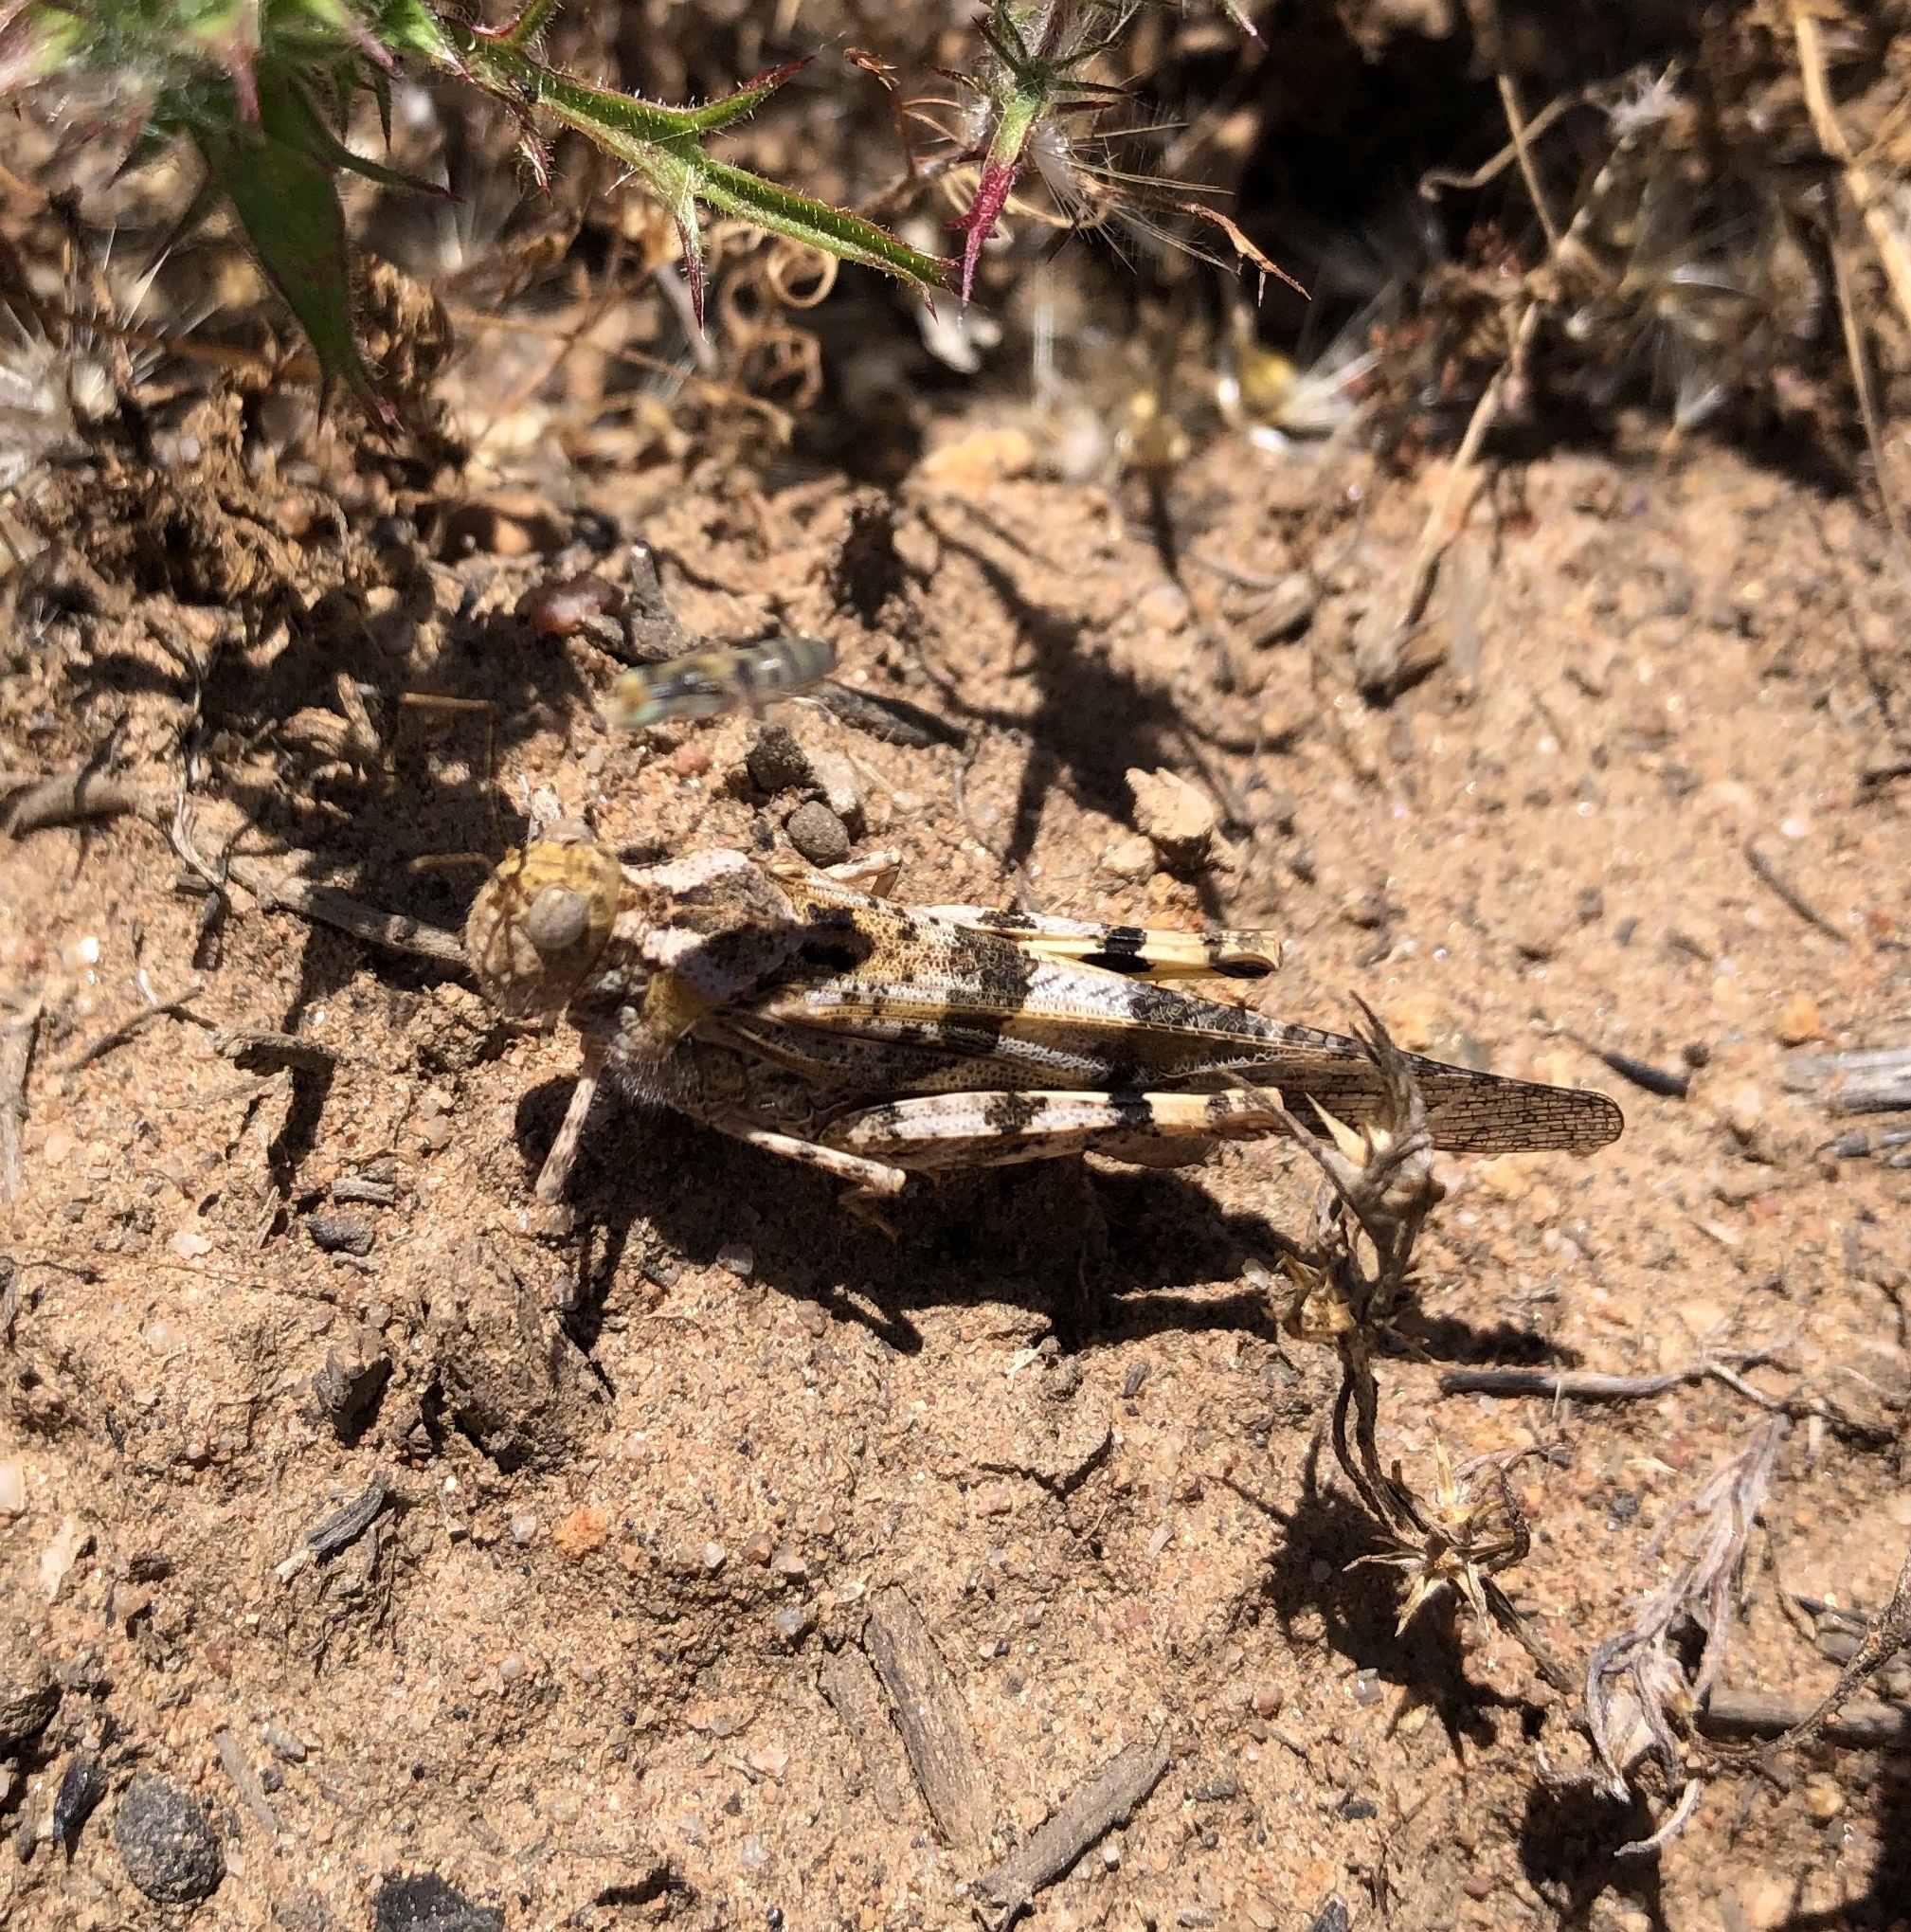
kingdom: Animalia
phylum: Arthropoda
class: Insecta
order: Orthoptera
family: Acrididae
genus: Trimerotropis
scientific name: Trimerotropis pallidipennis
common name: Pallid-winged grasshopper
